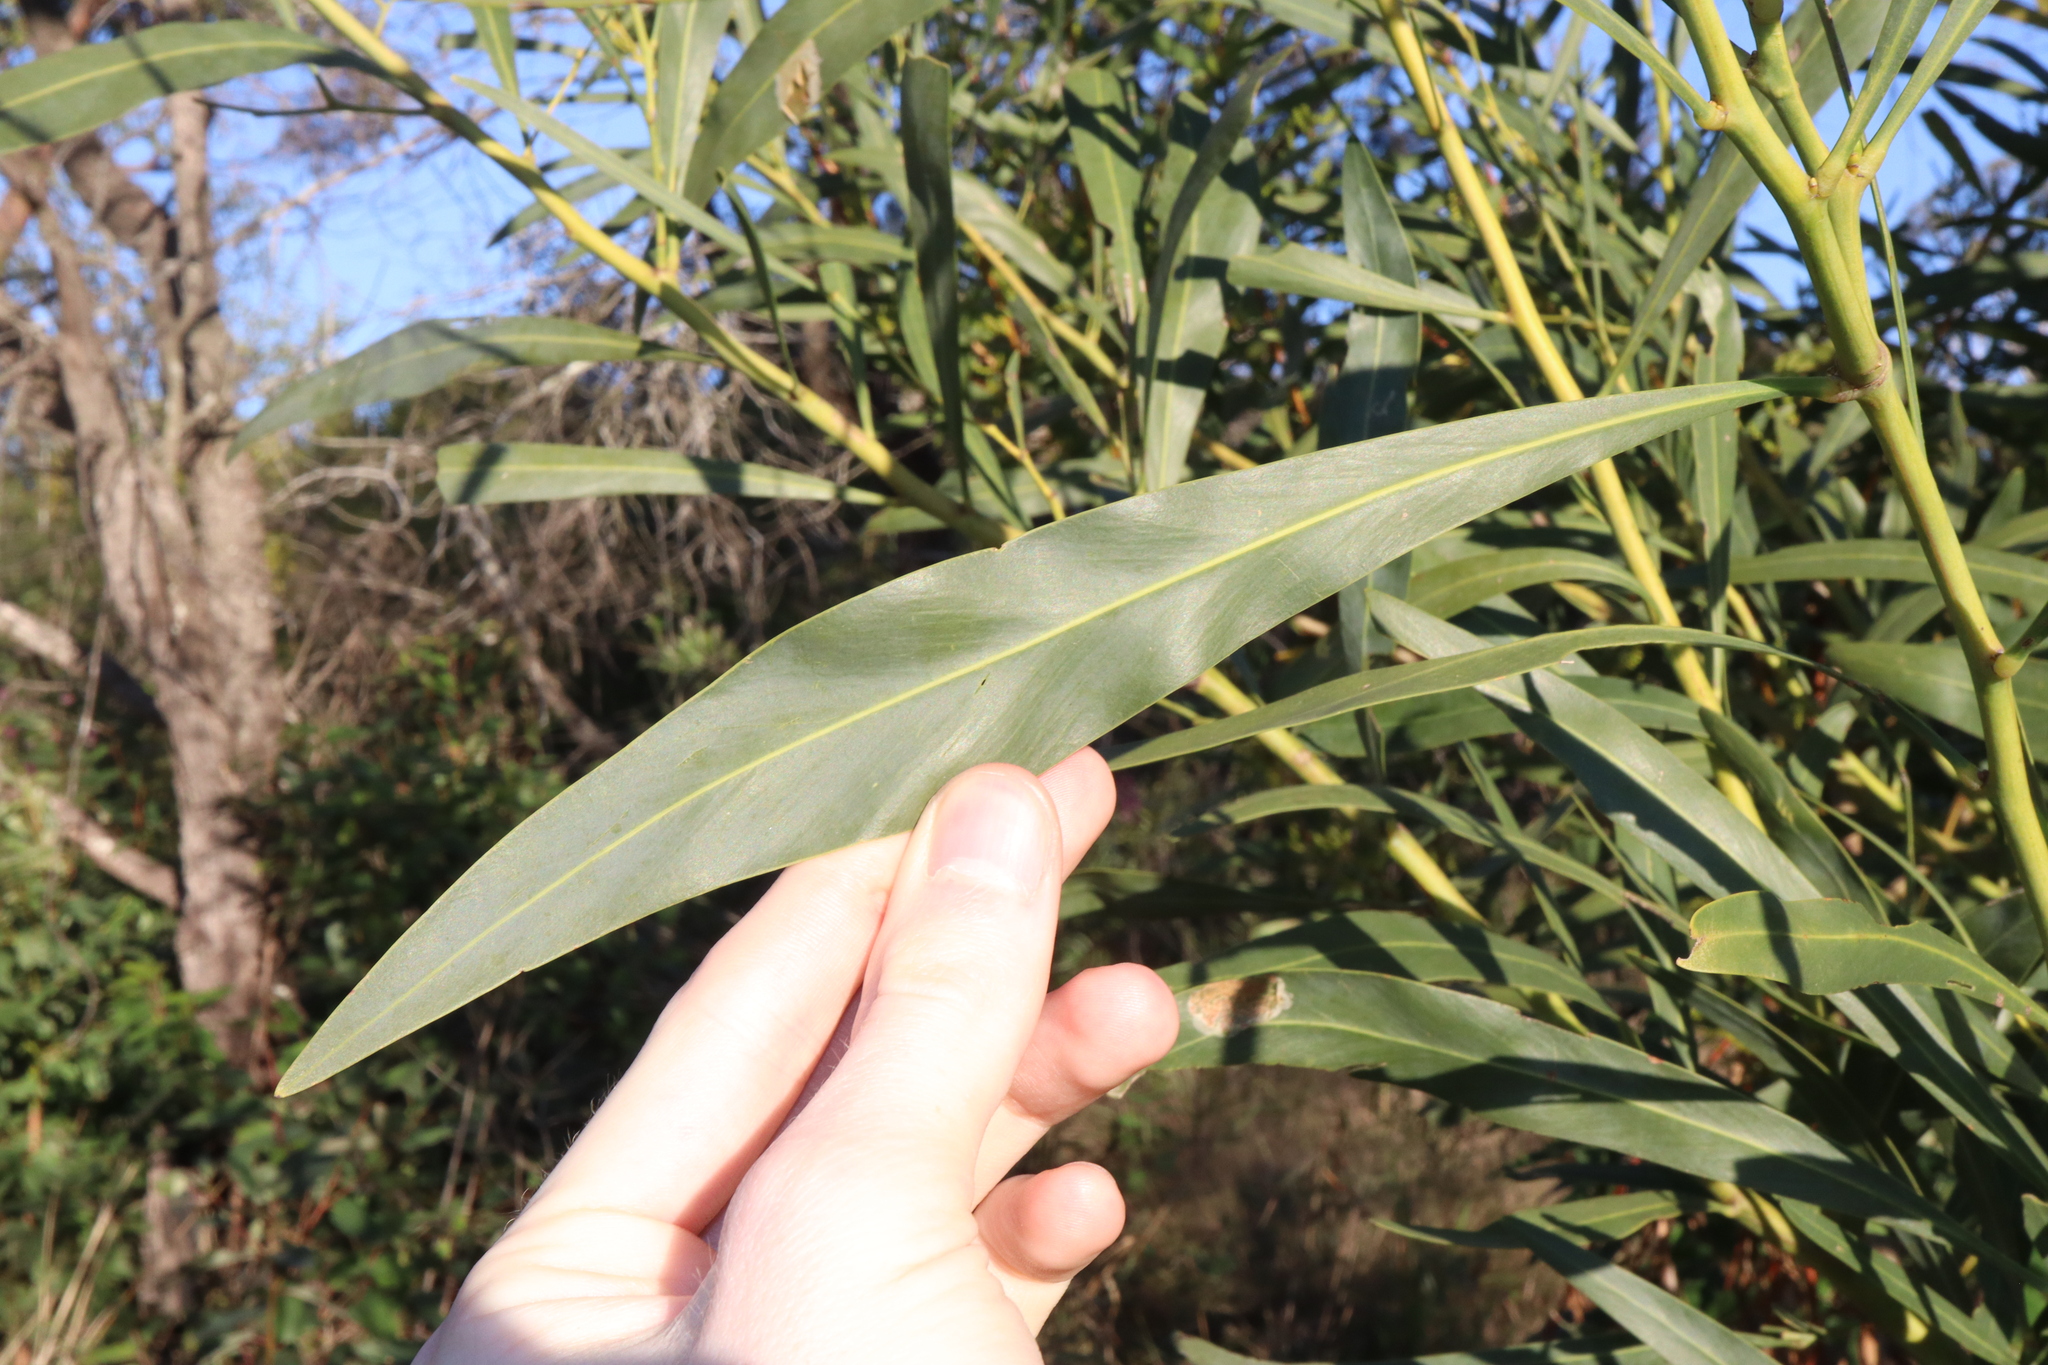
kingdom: Plantae
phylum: Tracheophyta
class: Magnoliopsida
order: Fabales
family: Fabaceae
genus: Acacia
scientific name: Acacia saligna
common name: Orange wattle
